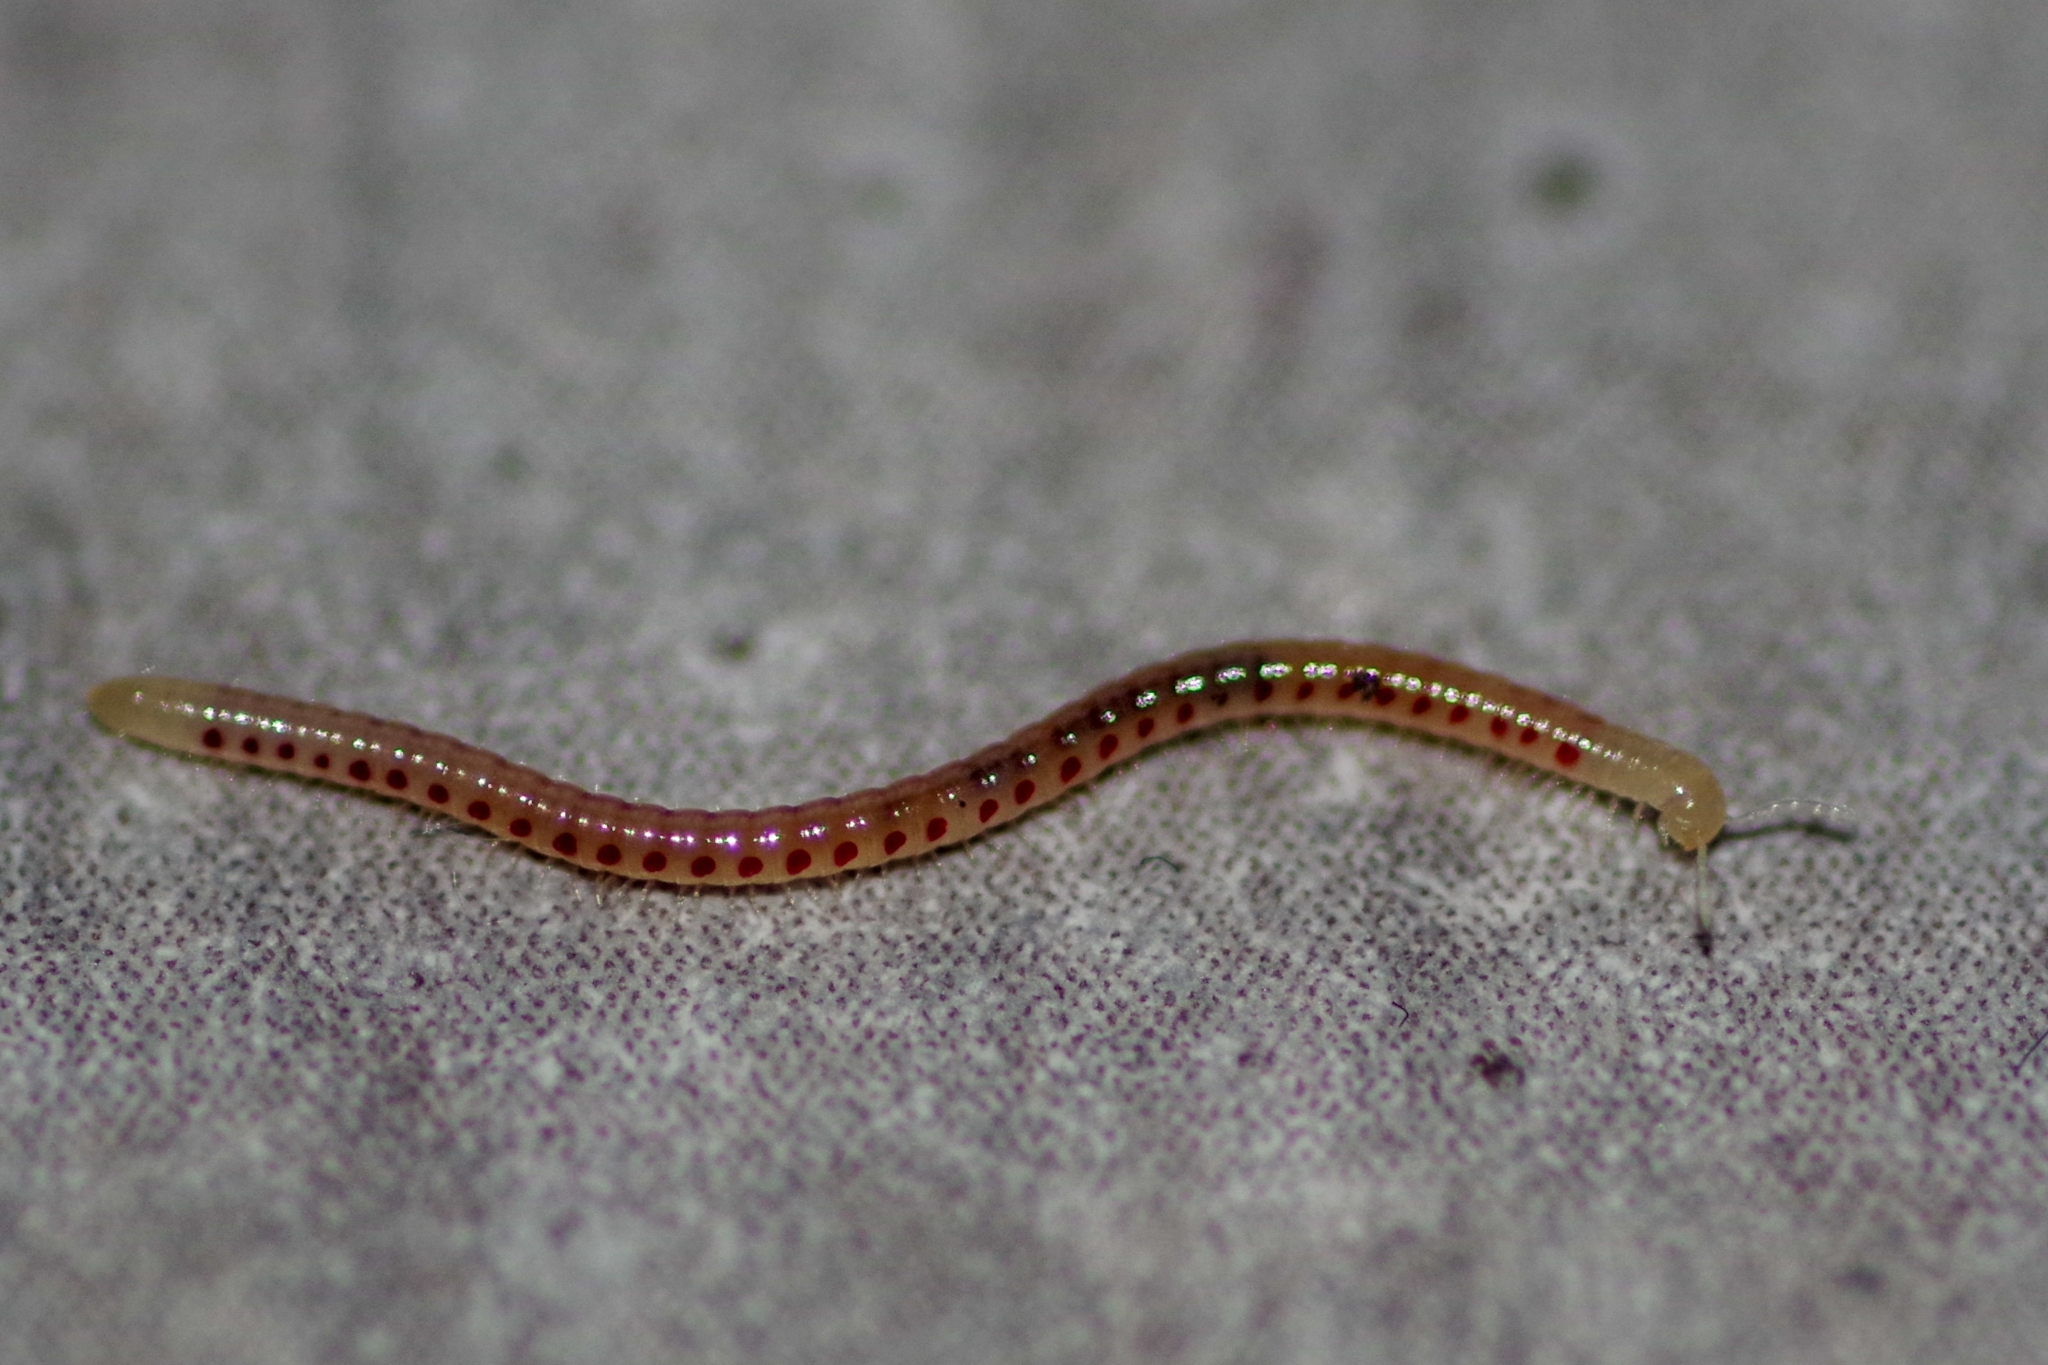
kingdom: Animalia
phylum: Arthropoda
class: Diplopoda
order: Julida
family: Blaniulidae
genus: Blaniulus
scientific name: Blaniulus guttulatus
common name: Spotted snake millipede
